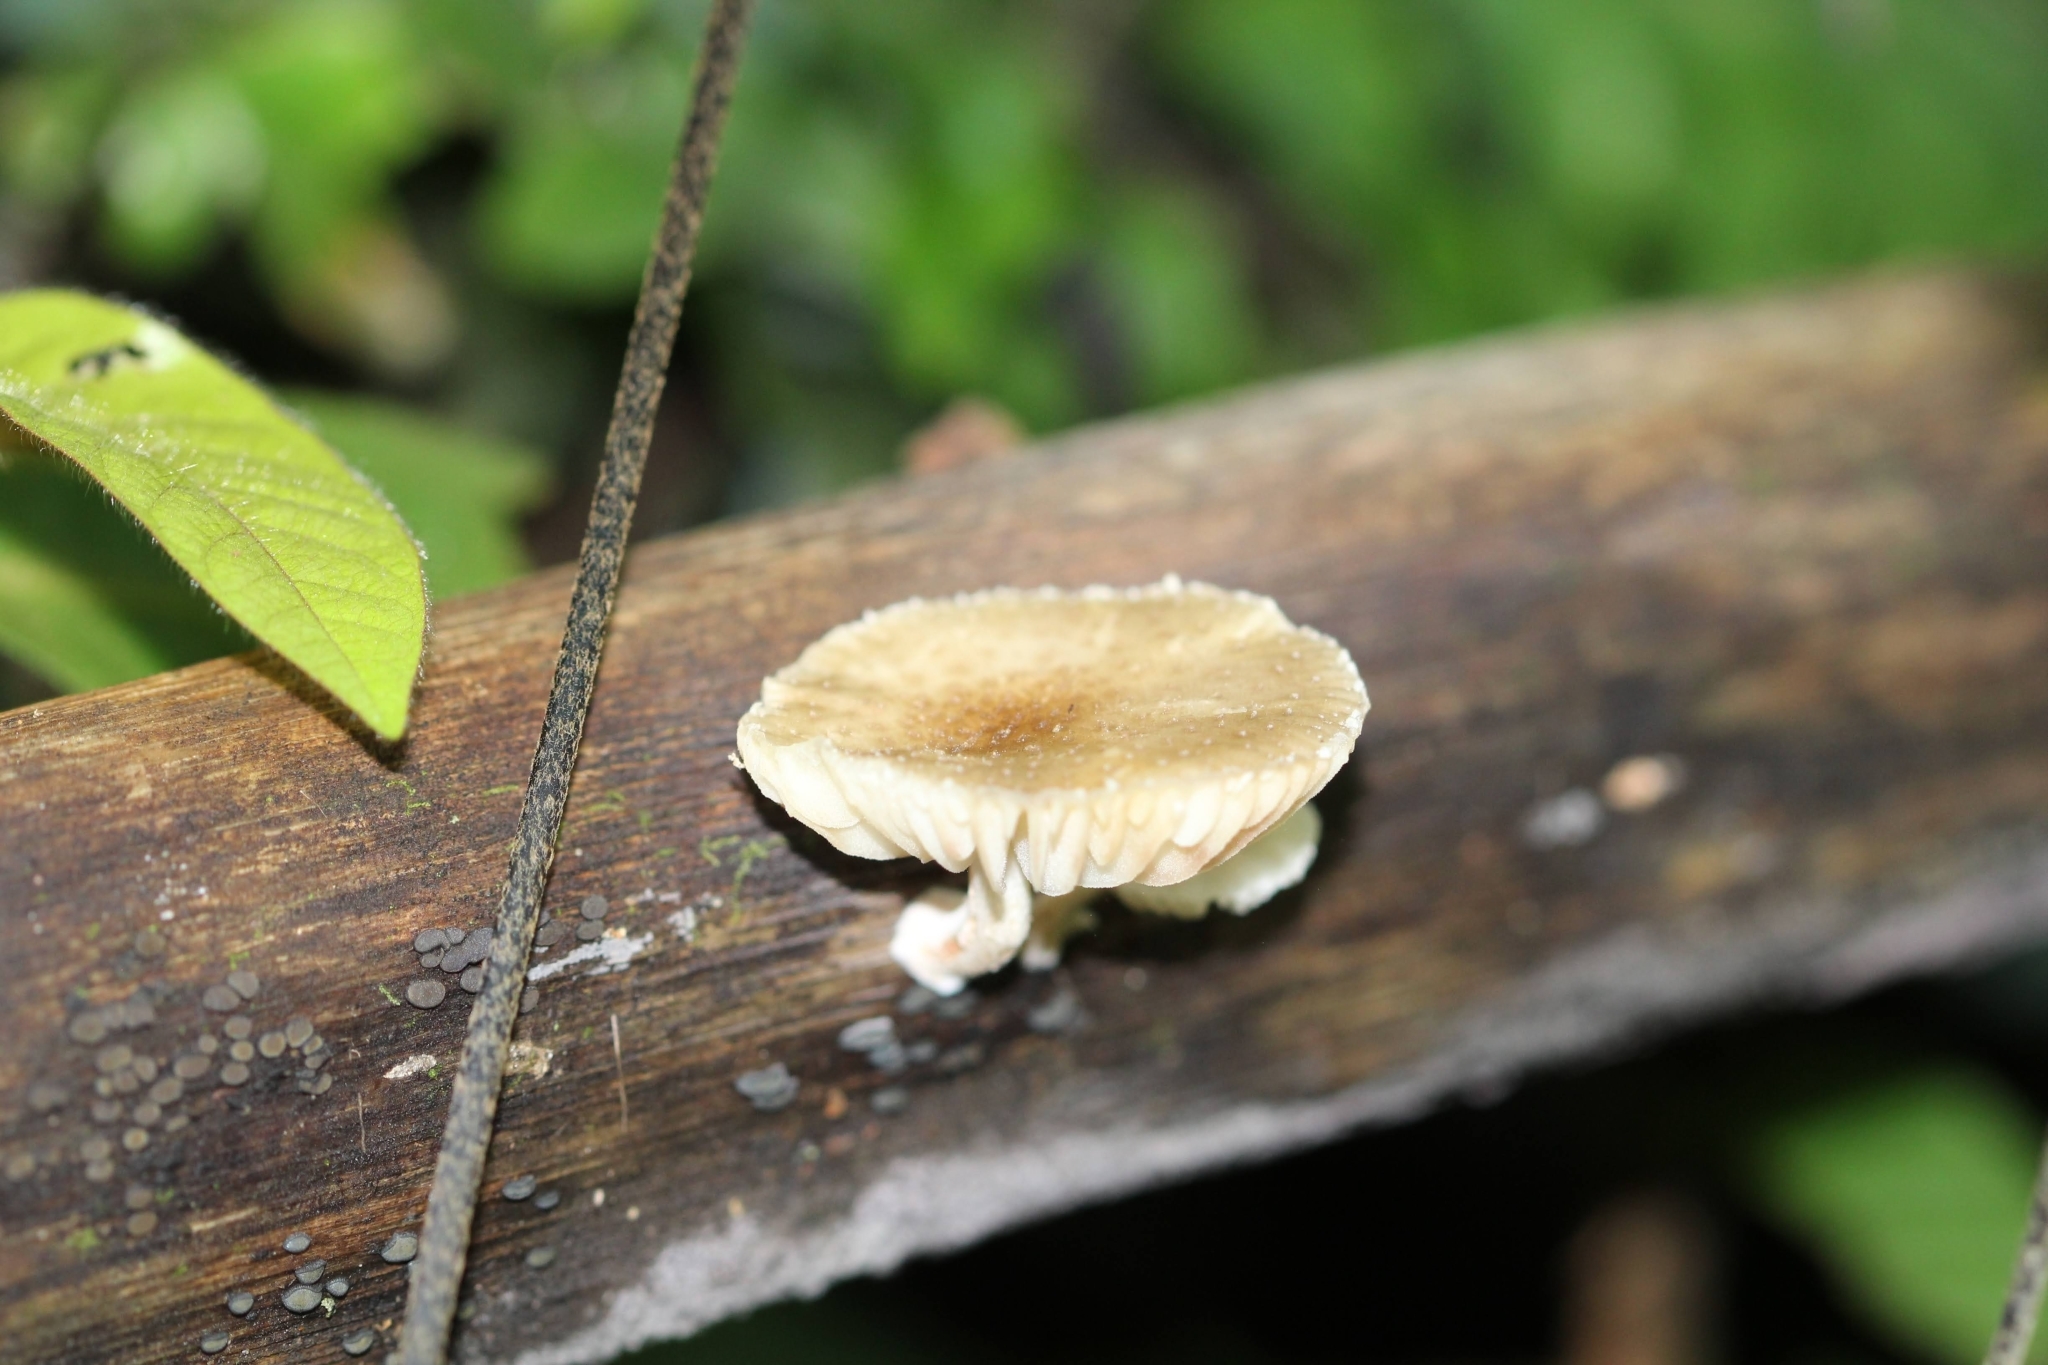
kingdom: Fungi
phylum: Basidiomycota
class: Agaricomycetes
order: Agaricales
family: Physalacriaceae
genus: Oudemansiella
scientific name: Oudemansiella canarii
